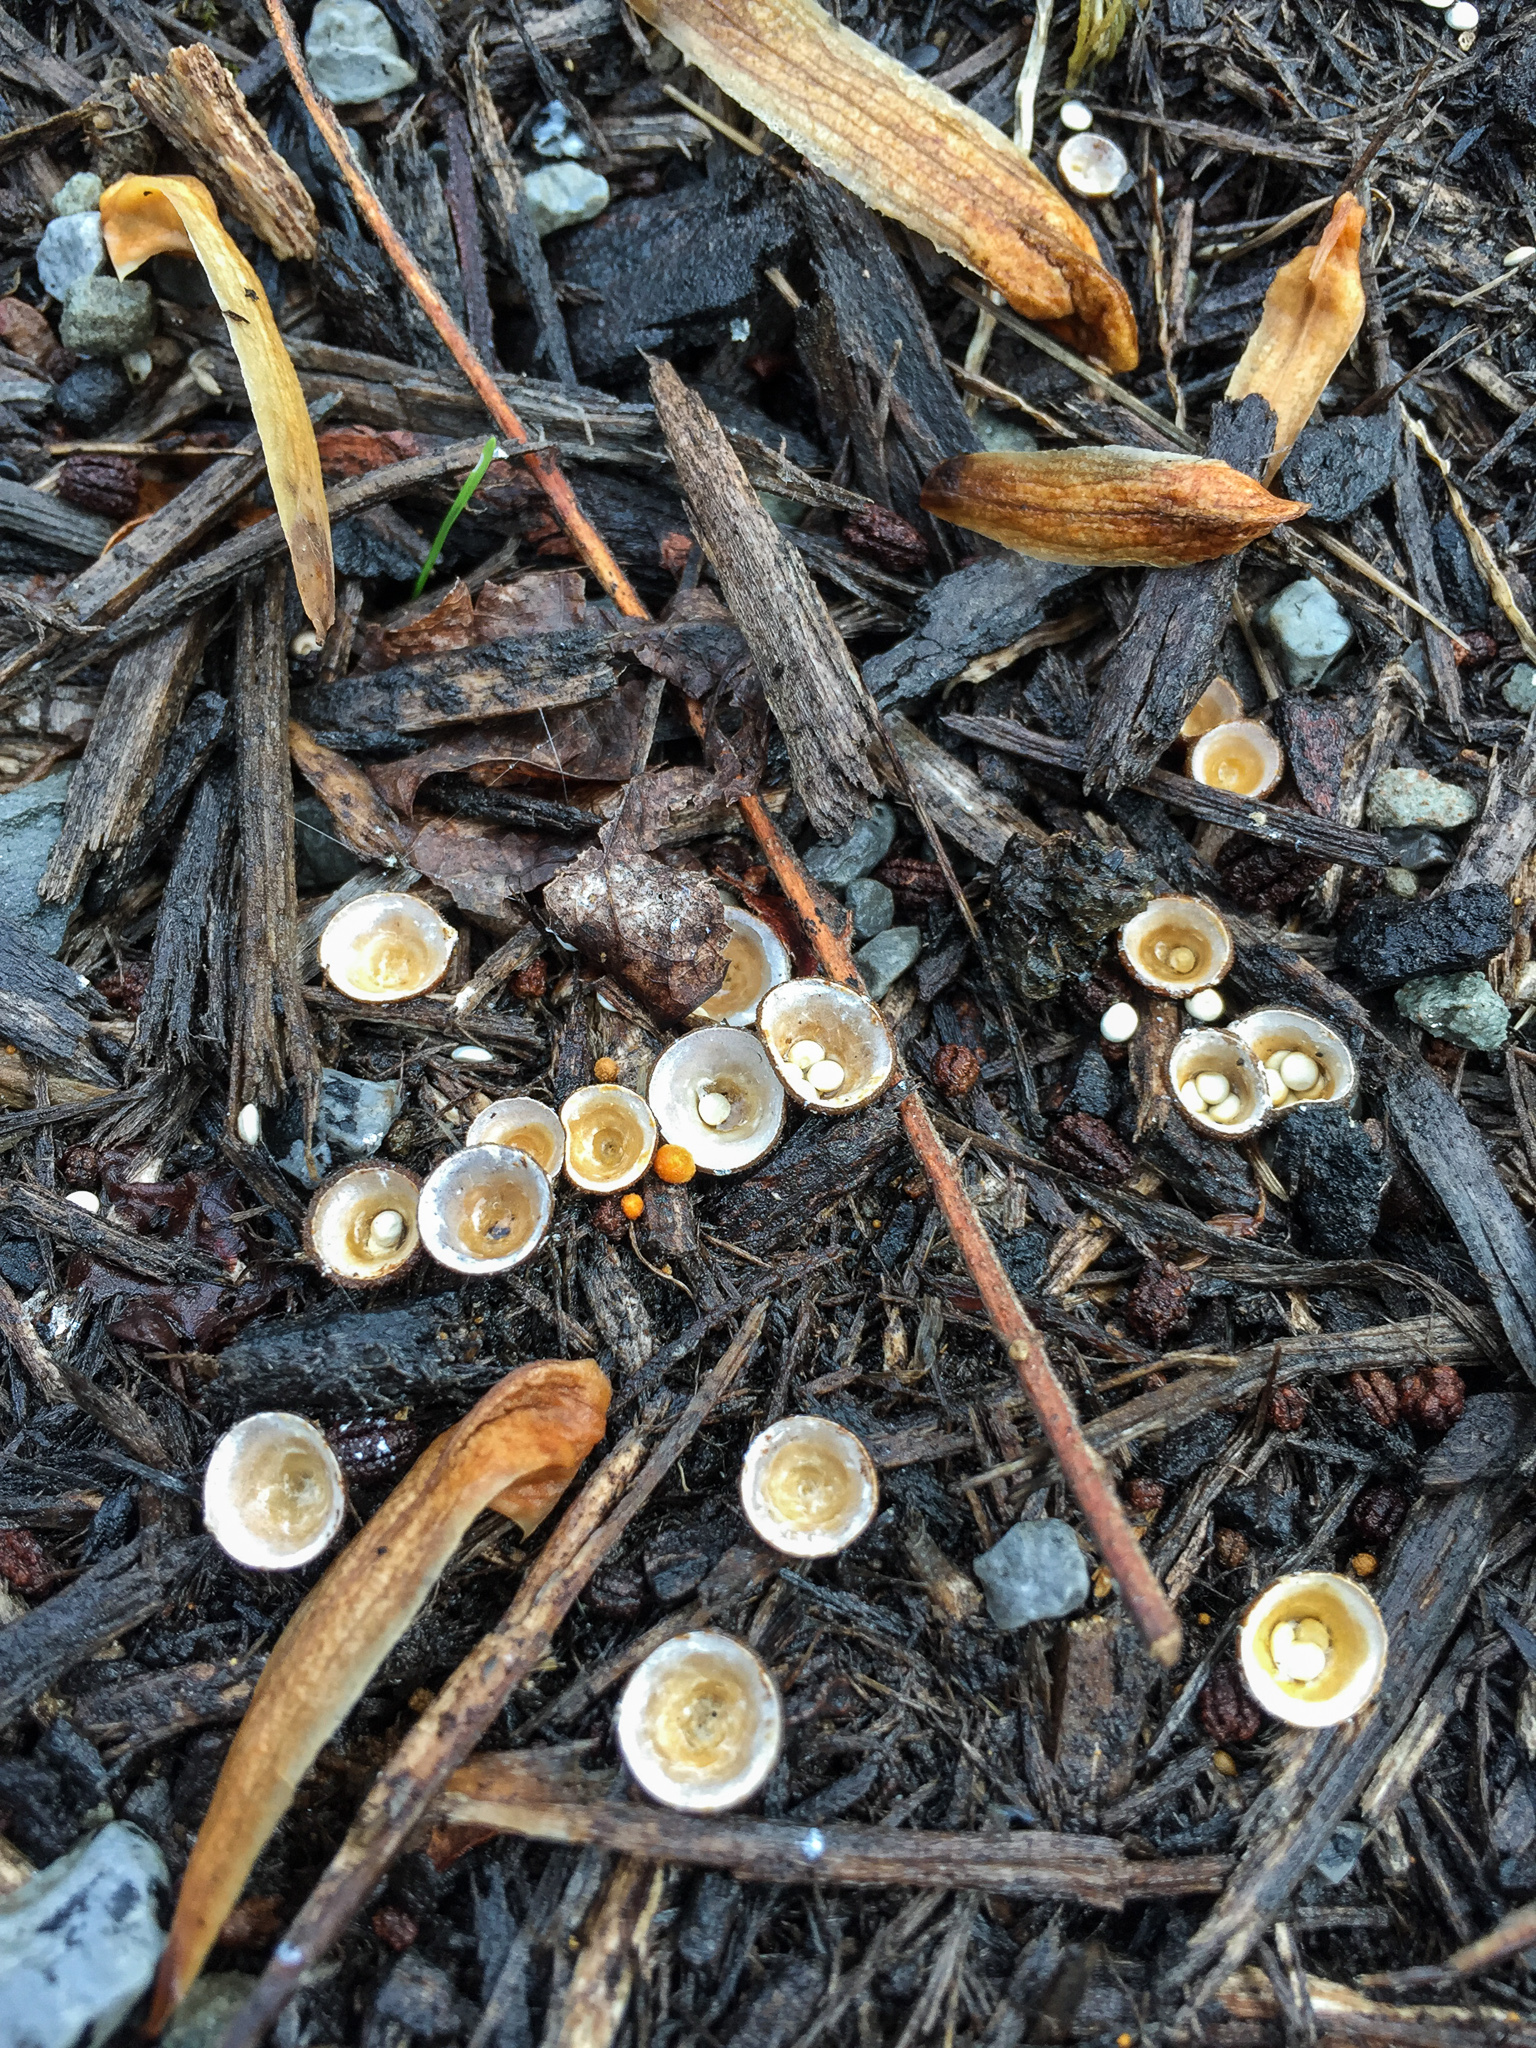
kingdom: Fungi
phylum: Basidiomycota
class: Agaricomycetes
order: Agaricales
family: Nidulariaceae
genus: Crucibulum
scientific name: Crucibulum laeve
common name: Common bird's nest
